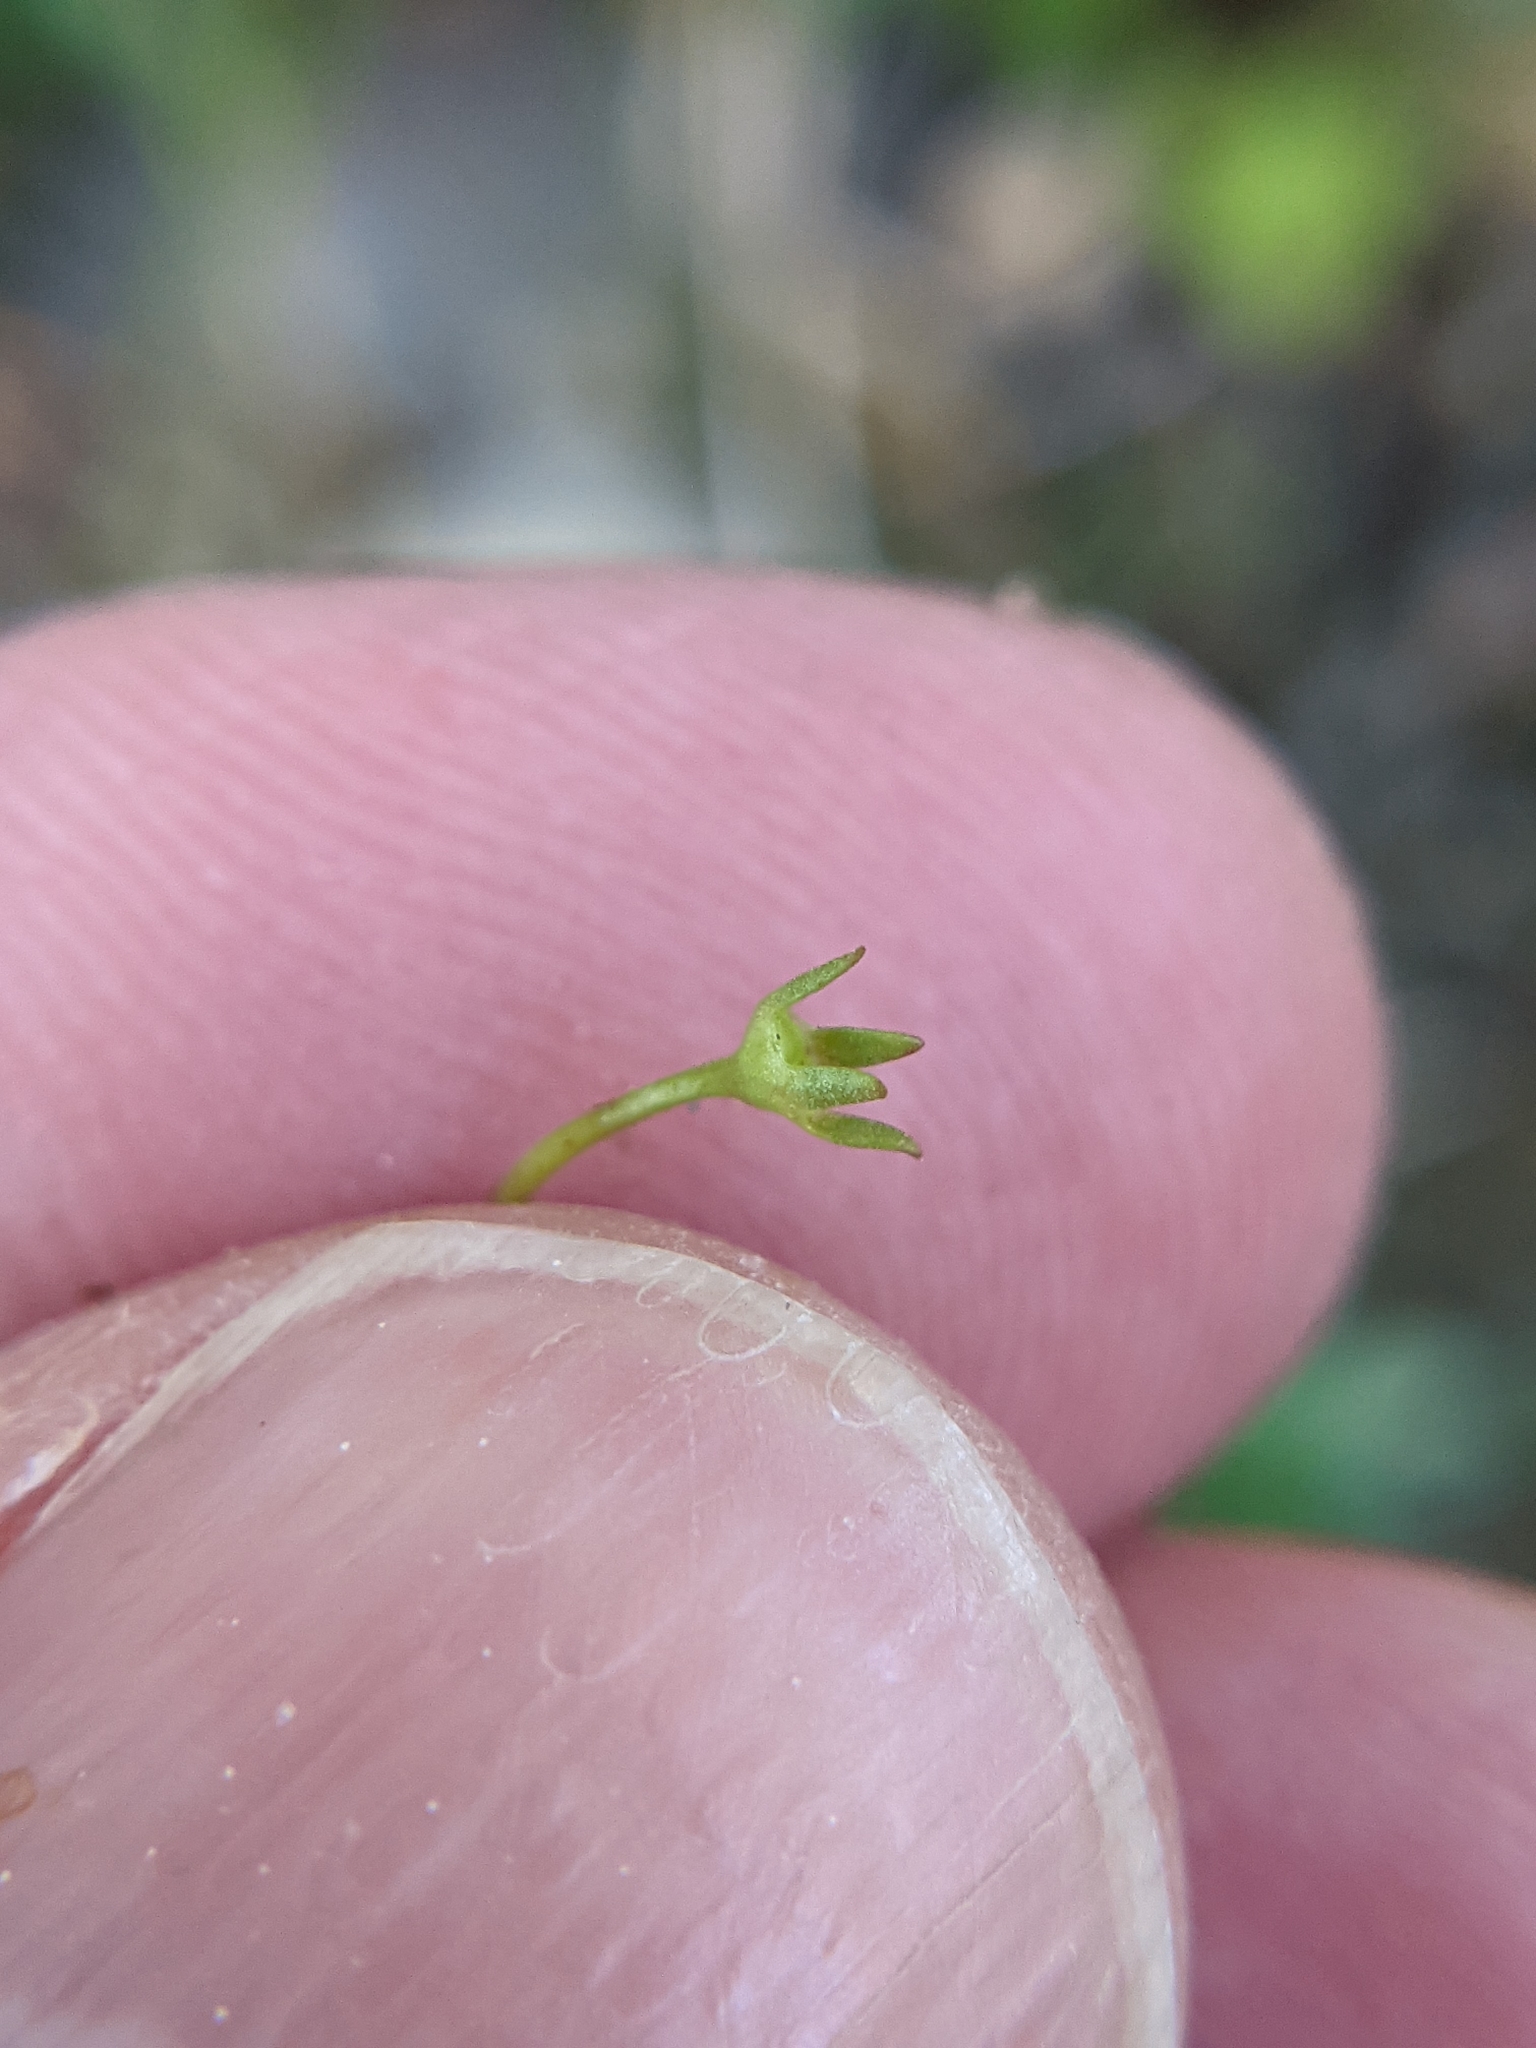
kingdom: Plantae
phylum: Tracheophyta
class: Magnoliopsida
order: Gentianales
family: Rubiaceae
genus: Houstonia
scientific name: Houstonia caerulea
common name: Bluets
